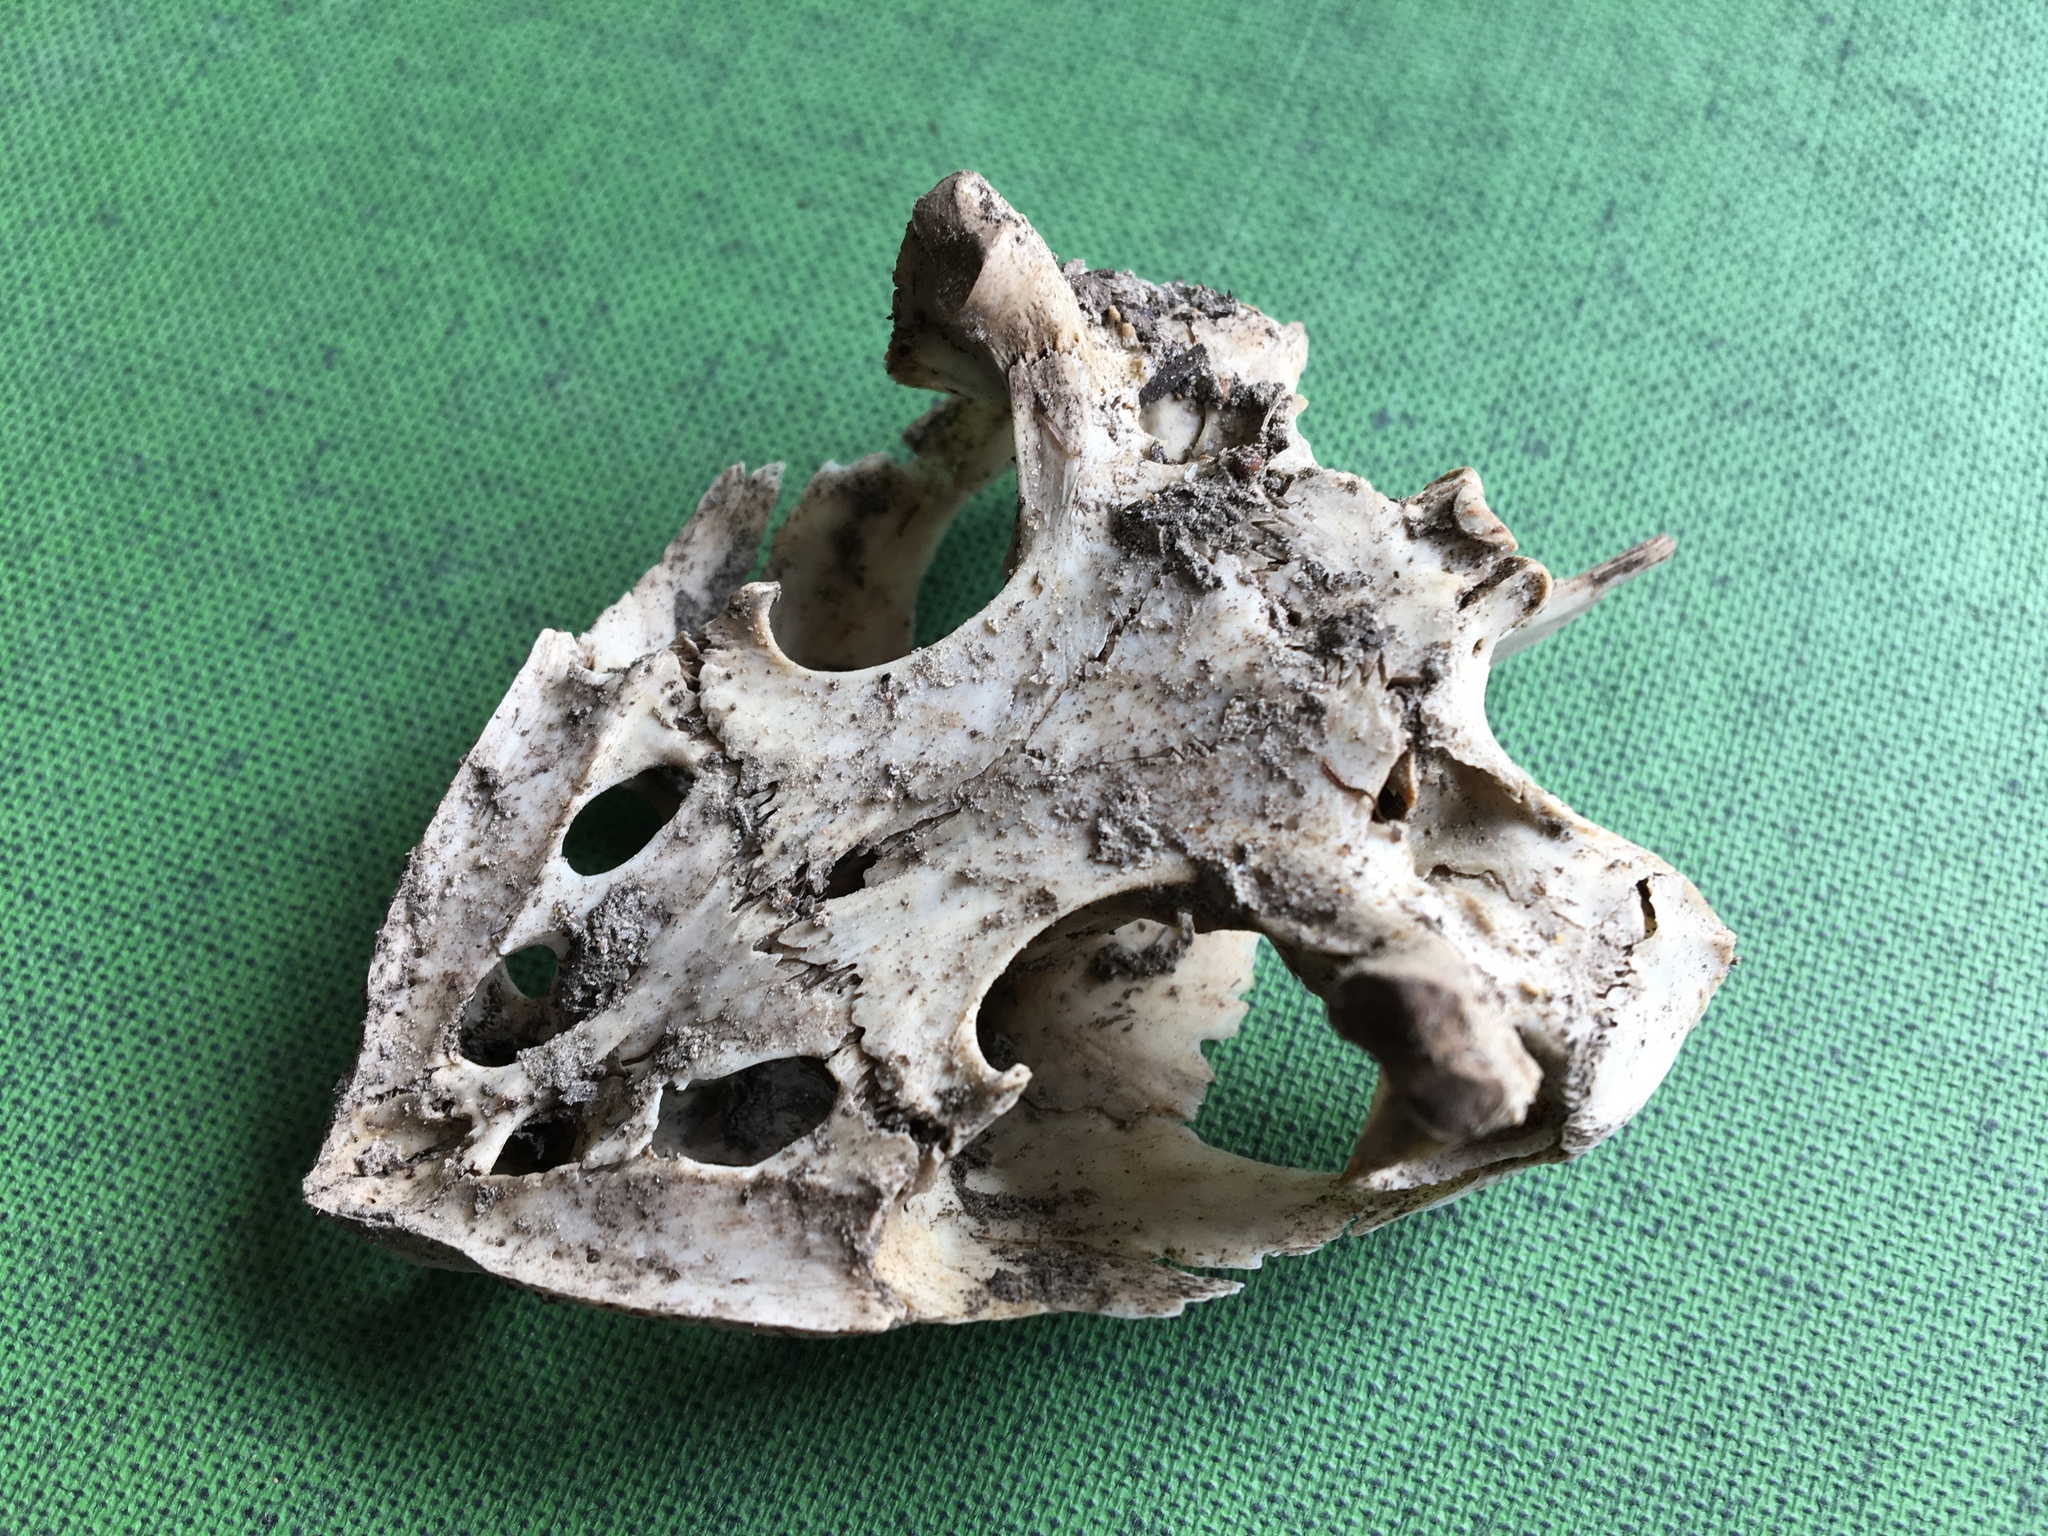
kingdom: Animalia
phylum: Chordata
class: Testudines
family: Chelydridae
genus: Chelydra
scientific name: Chelydra serpentina
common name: Common snapping turtle
